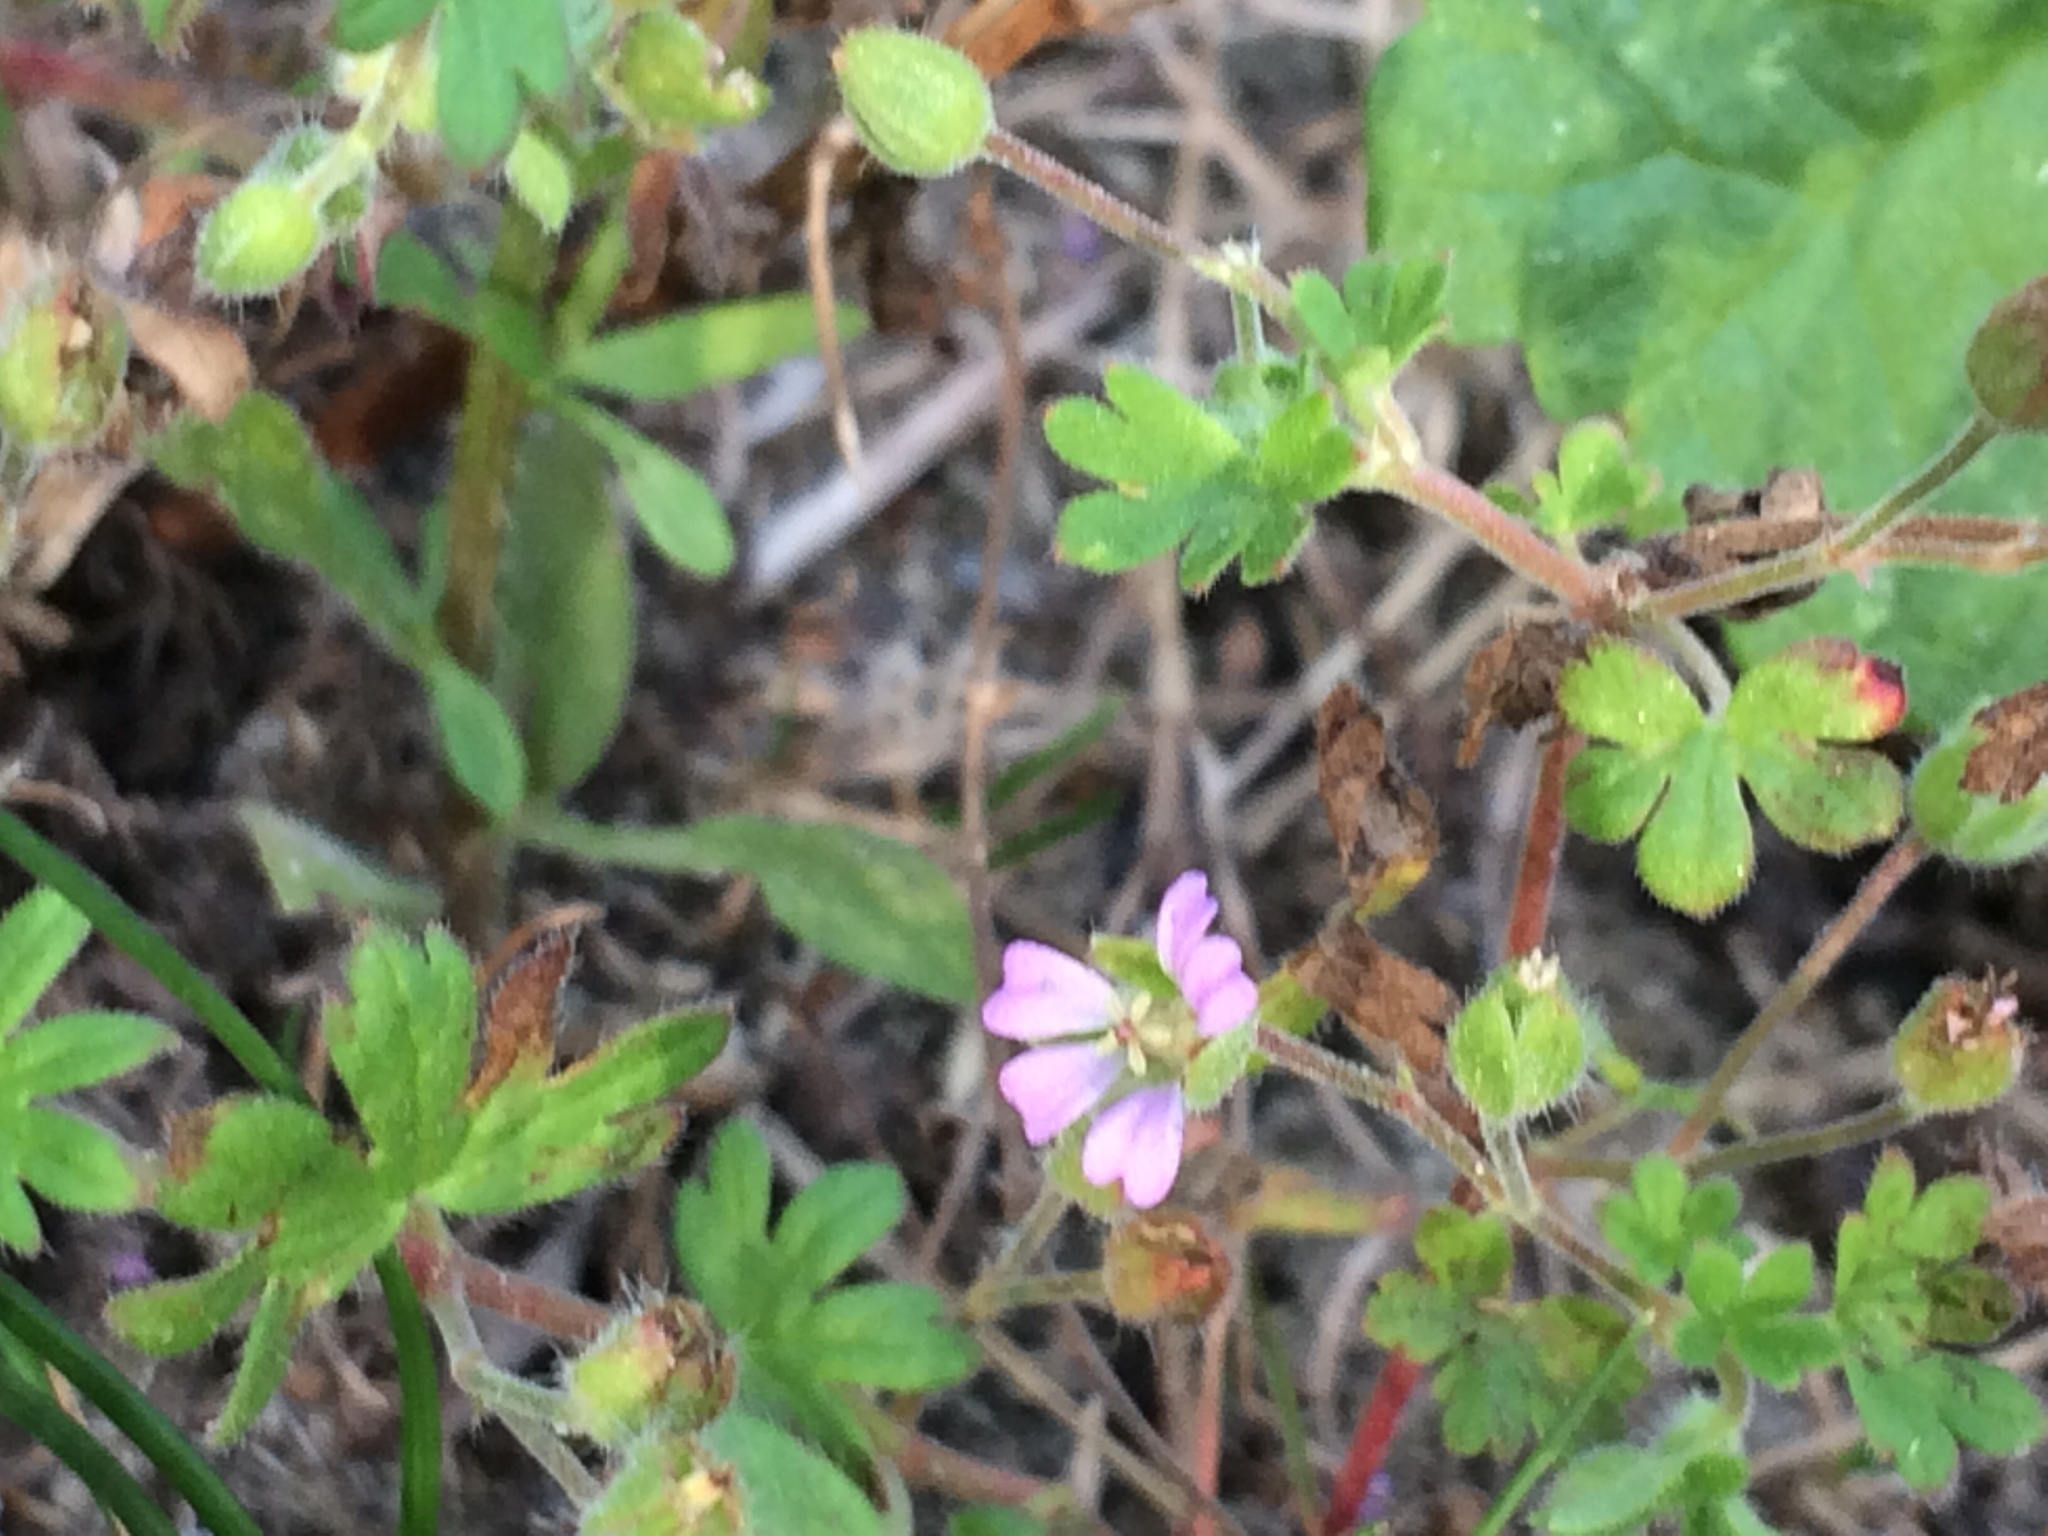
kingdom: Plantae
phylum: Tracheophyta
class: Magnoliopsida
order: Geraniales
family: Geraniaceae
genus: Geranium
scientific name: Geranium pusillum
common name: Small geranium
